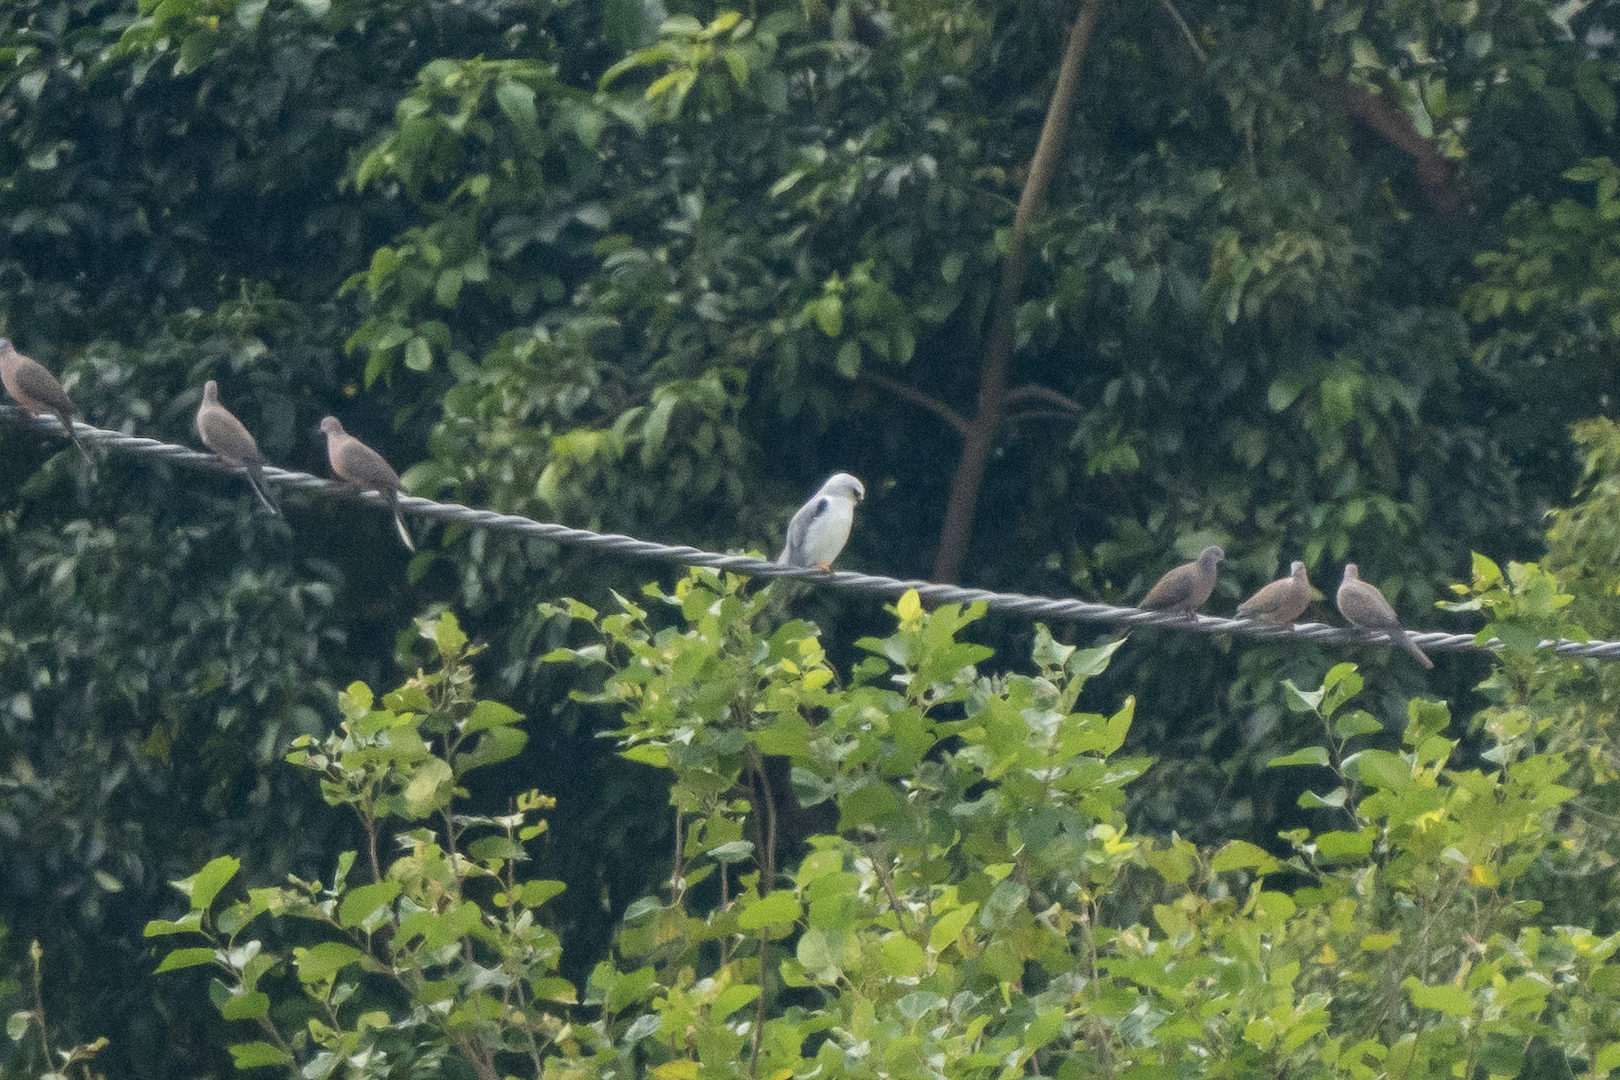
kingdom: Animalia
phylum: Chordata
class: Aves
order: Accipitriformes
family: Accipitridae
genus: Elanus
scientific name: Elanus caeruleus
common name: Black-winged kite
